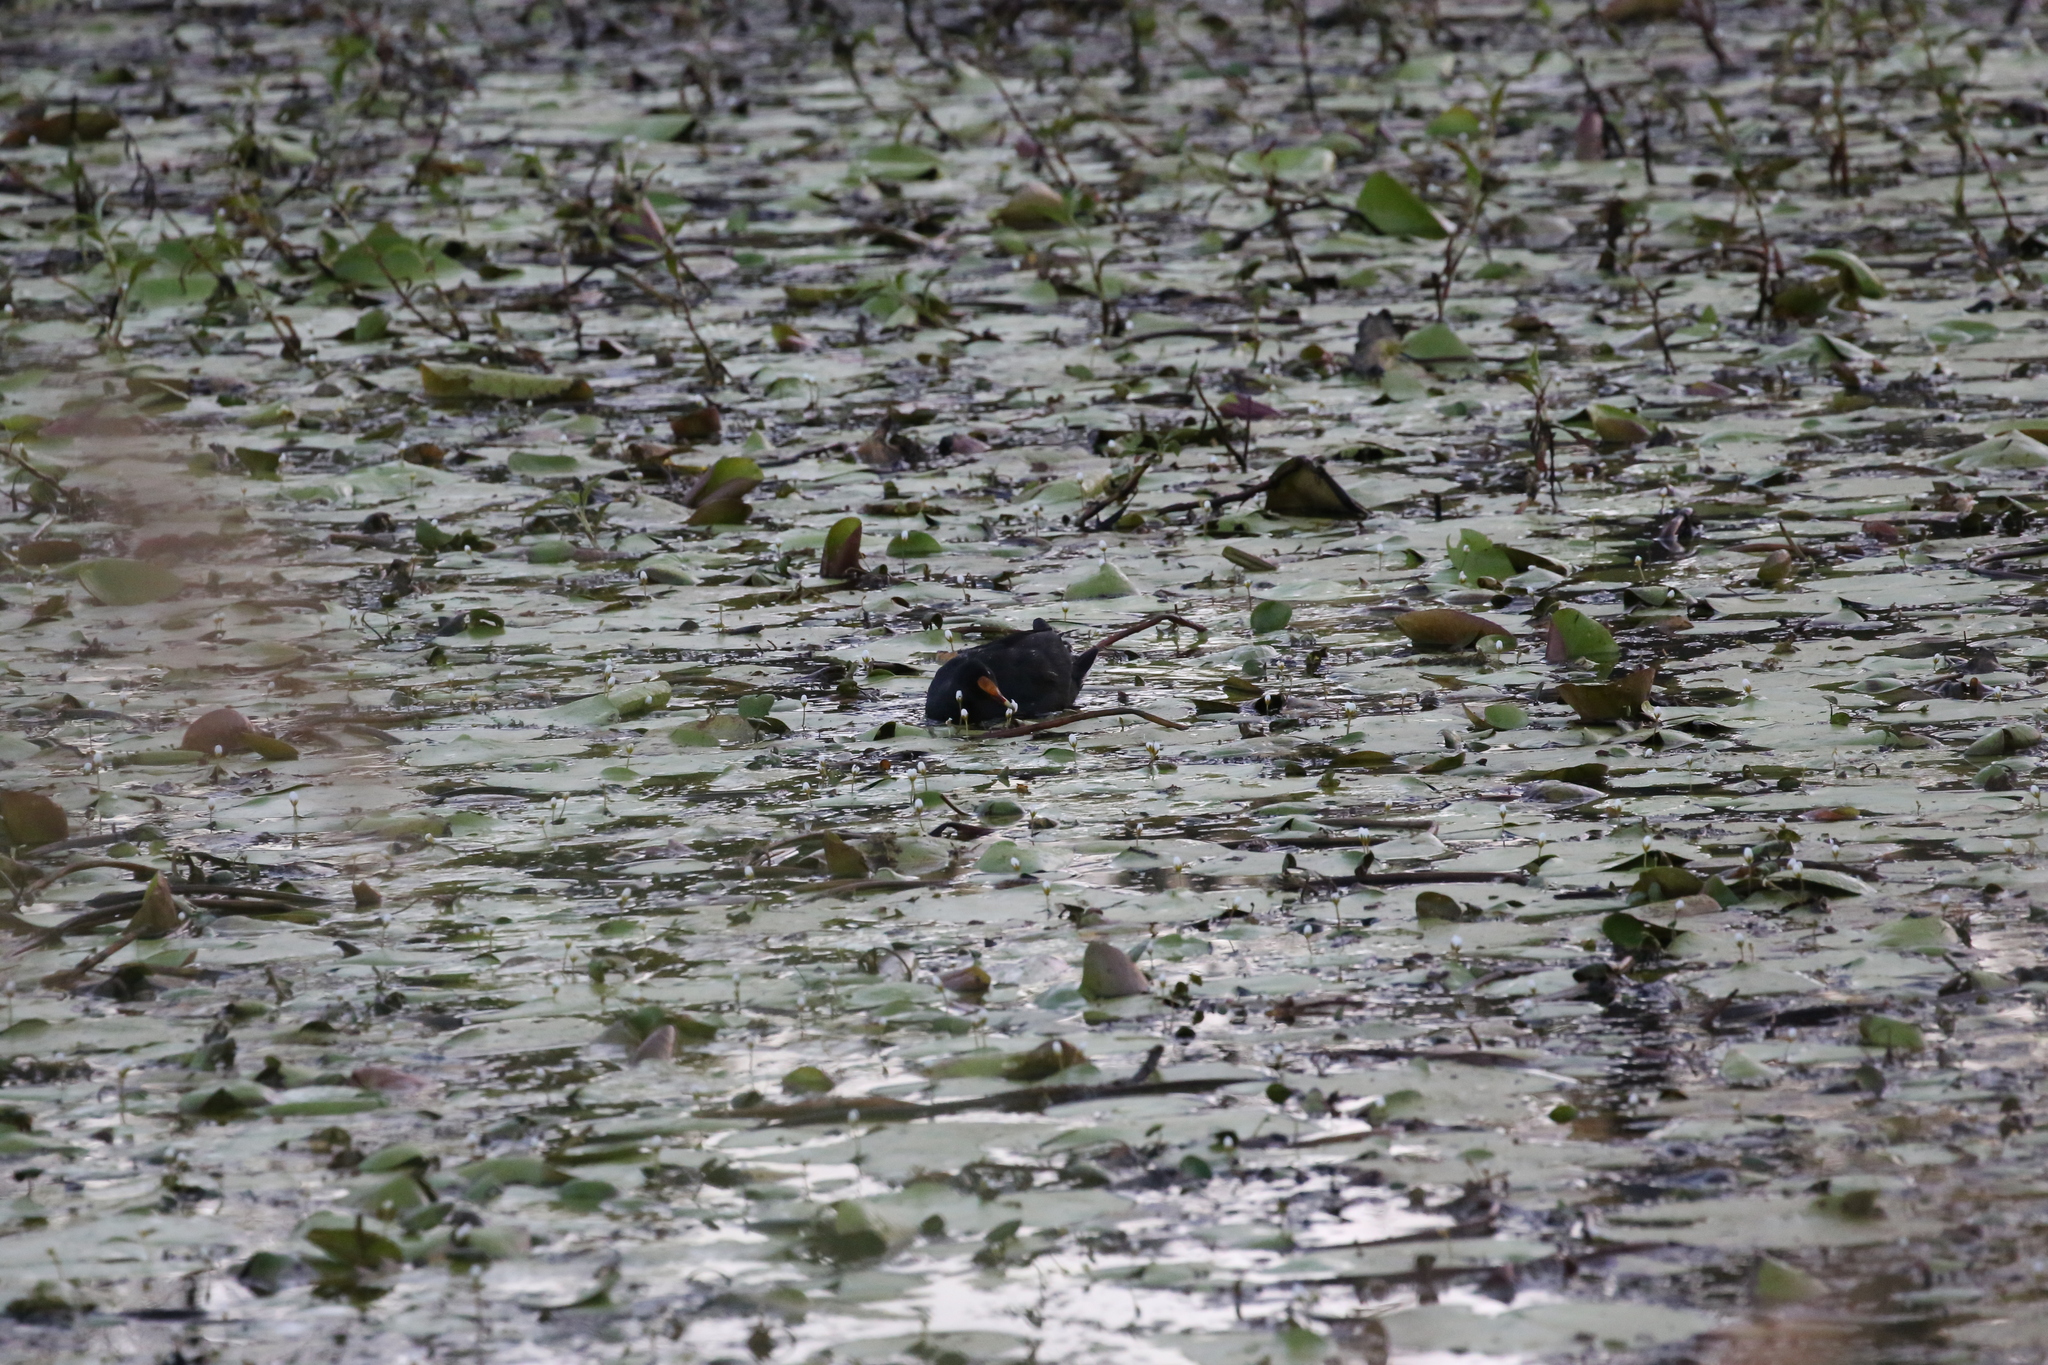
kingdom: Animalia
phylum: Chordata
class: Aves
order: Gruiformes
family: Rallidae
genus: Gallinula
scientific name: Gallinula tenebrosa
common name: Dusky moorhen
